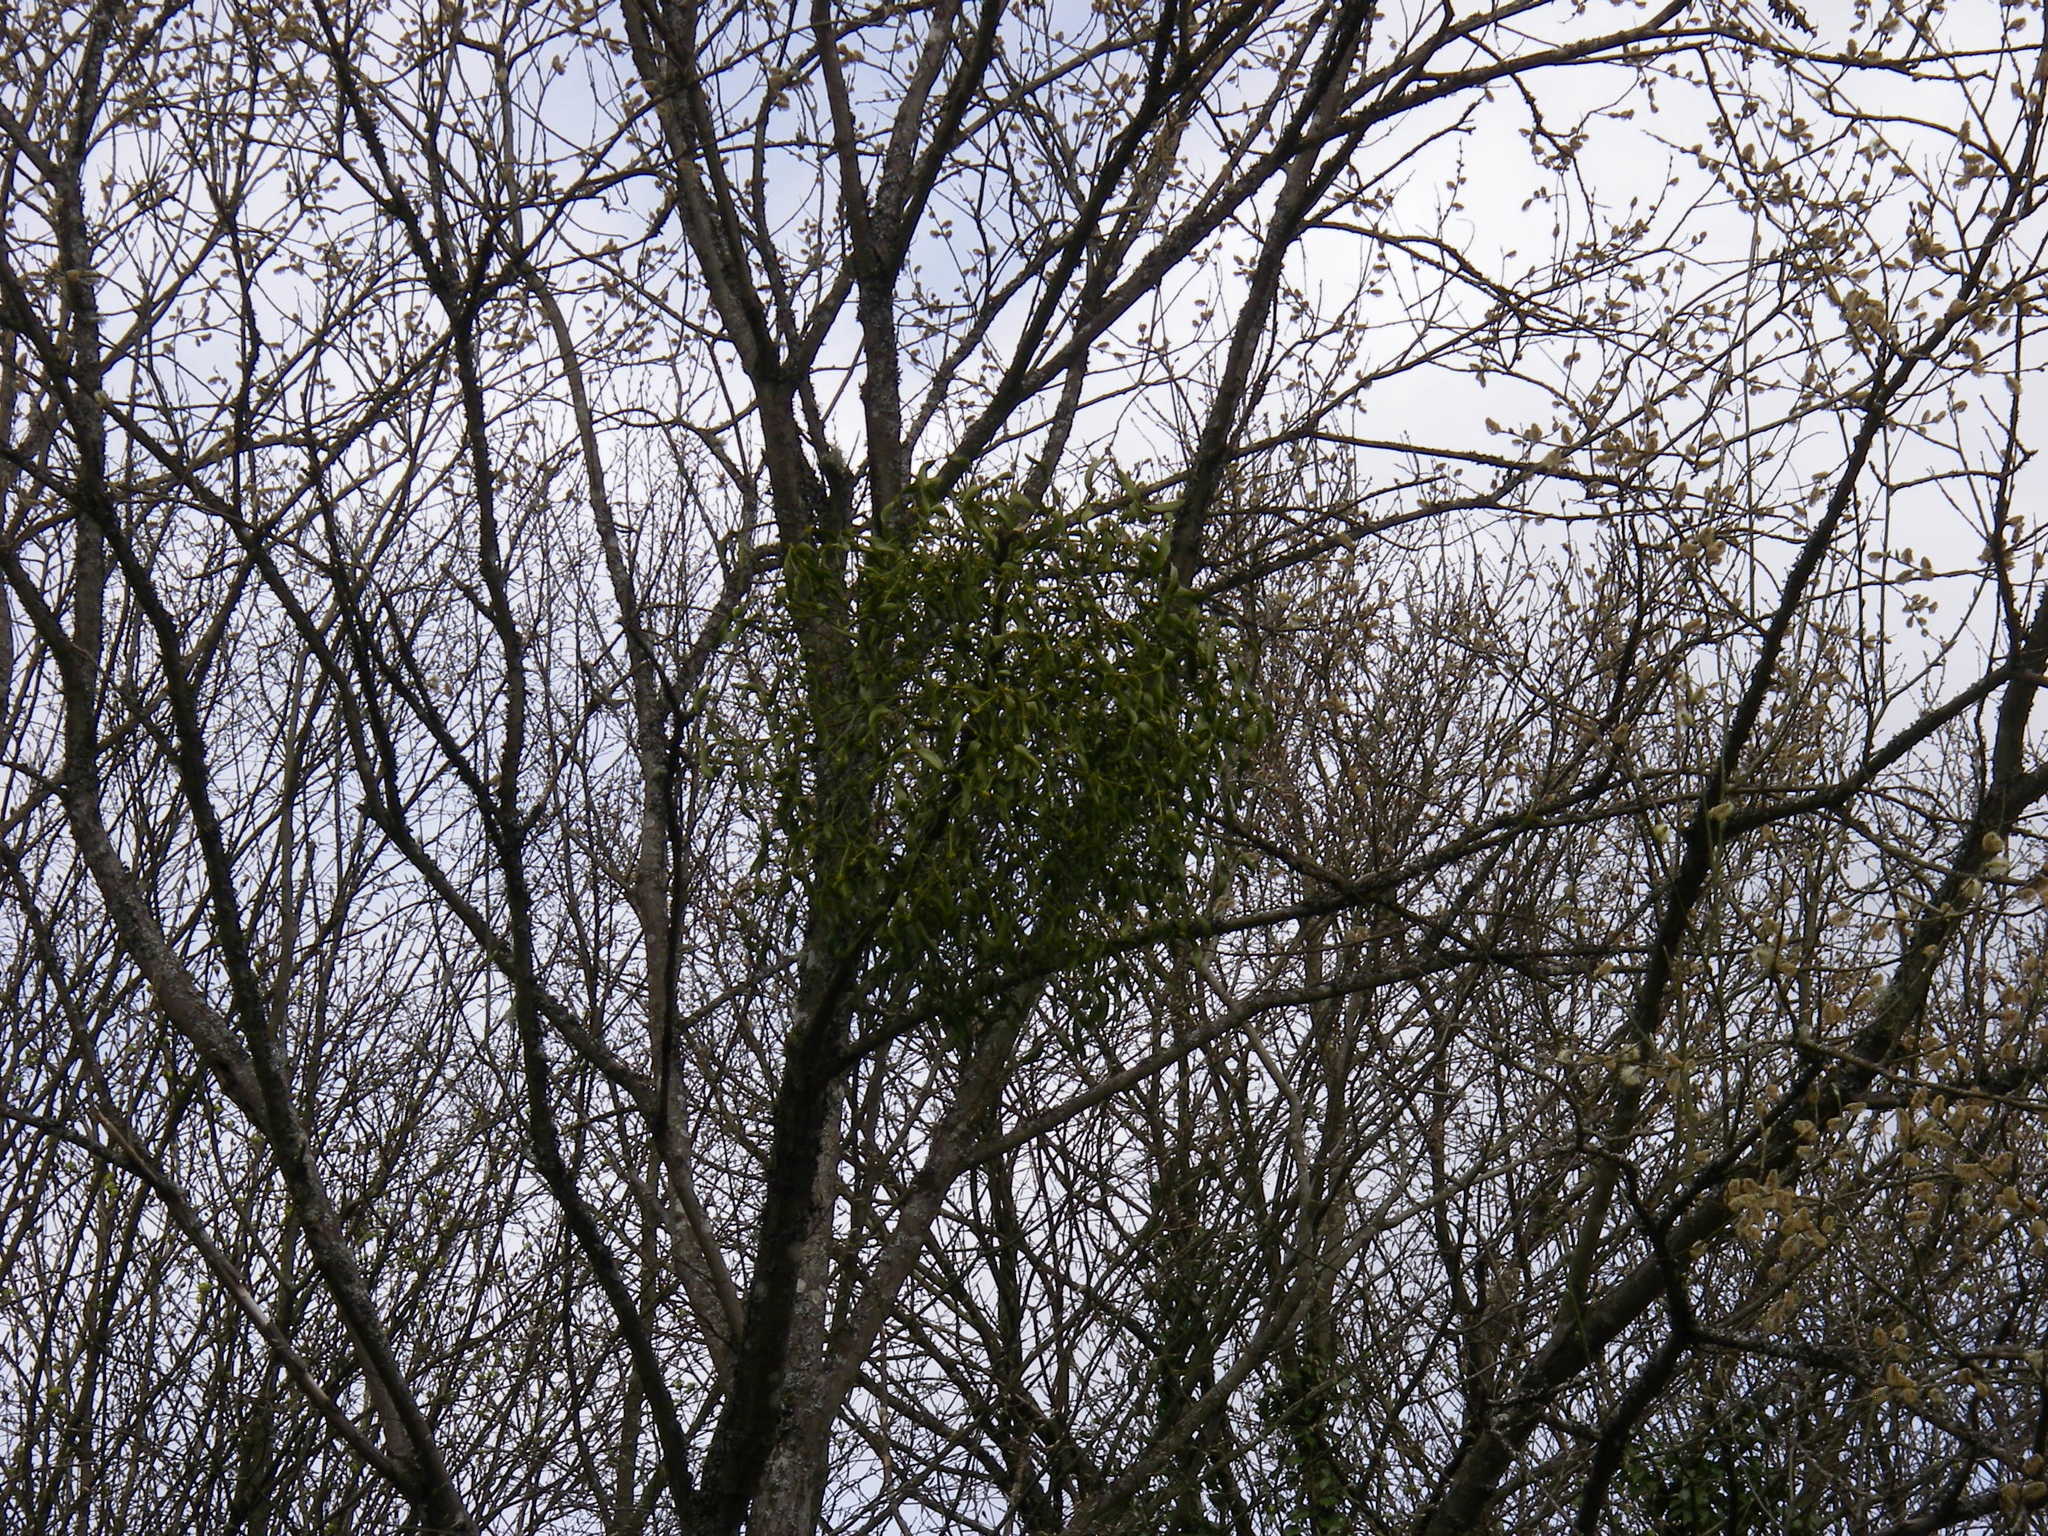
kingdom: Plantae
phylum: Tracheophyta
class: Magnoliopsida
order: Santalales
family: Viscaceae
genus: Viscum
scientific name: Viscum album
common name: Mistletoe
